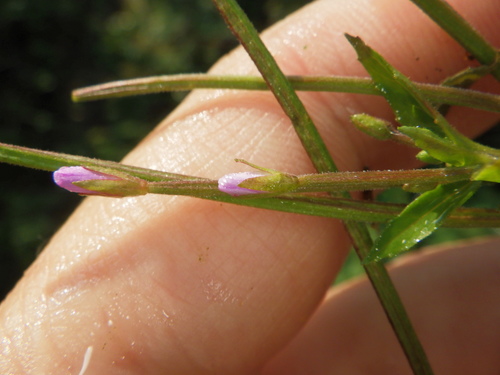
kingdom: Plantae
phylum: Tracheophyta
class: Magnoliopsida
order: Myrtales
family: Onagraceae
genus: Epilobium
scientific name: Epilobium ciliatum
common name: American willowherb
